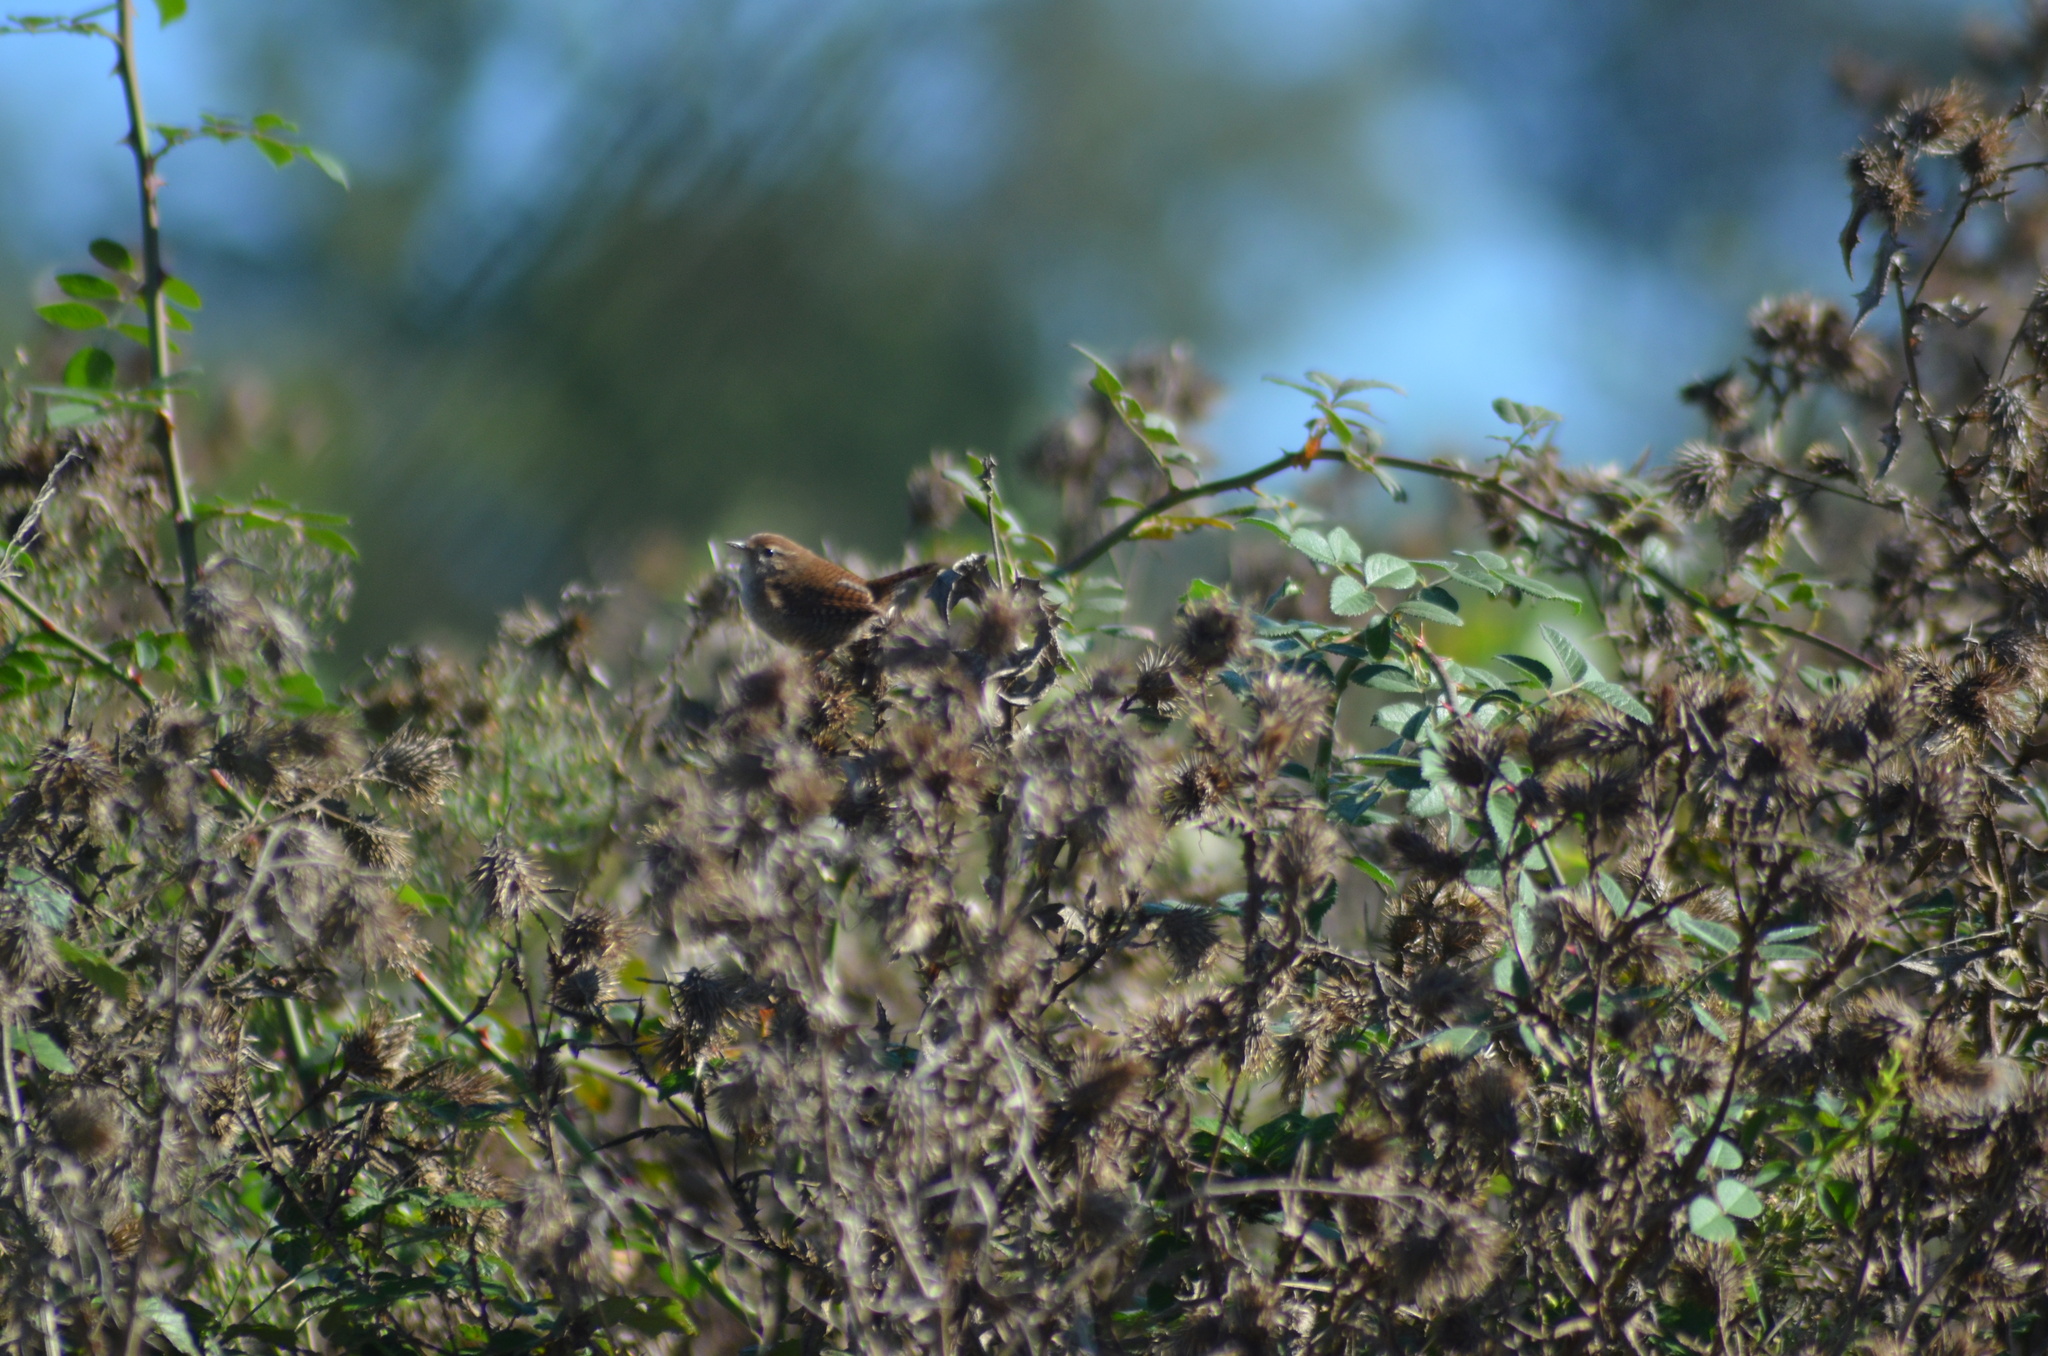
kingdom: Animalia
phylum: Chordata
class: Aves
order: Passeriformes
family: Troglodytidae
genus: Troglodytes
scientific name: Troglodytes troglodytes
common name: Eurasian wren
